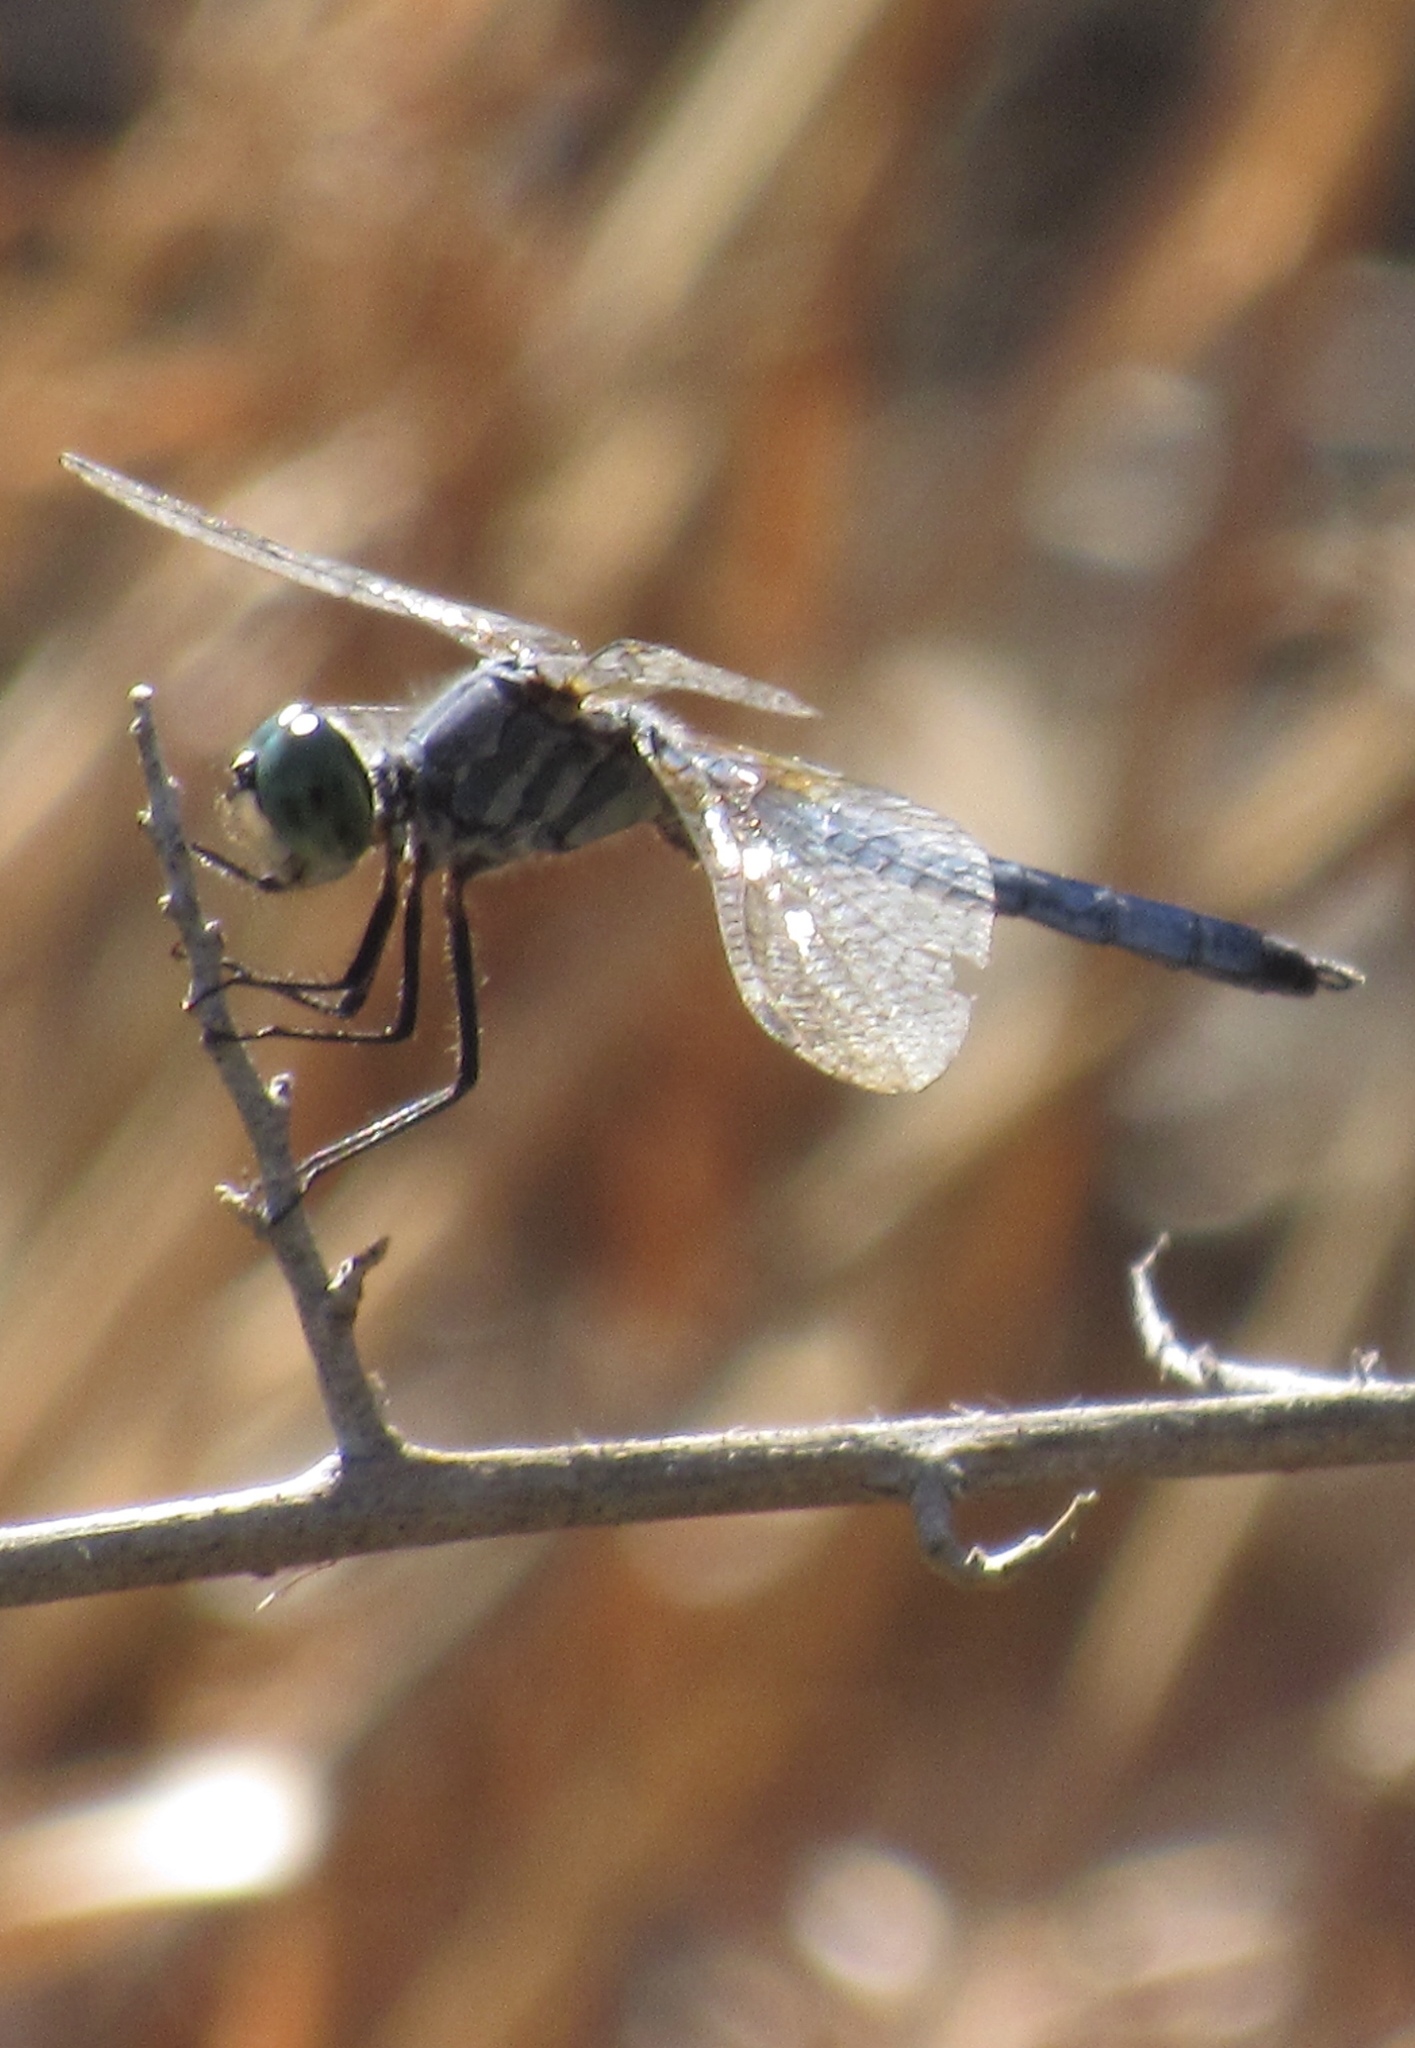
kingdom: Animalia
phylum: Arthropoda
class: Insecta
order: Odonata
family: Libellulidae
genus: Pachydiplax
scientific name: Pachydiplax longipennis
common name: Blue dasher
